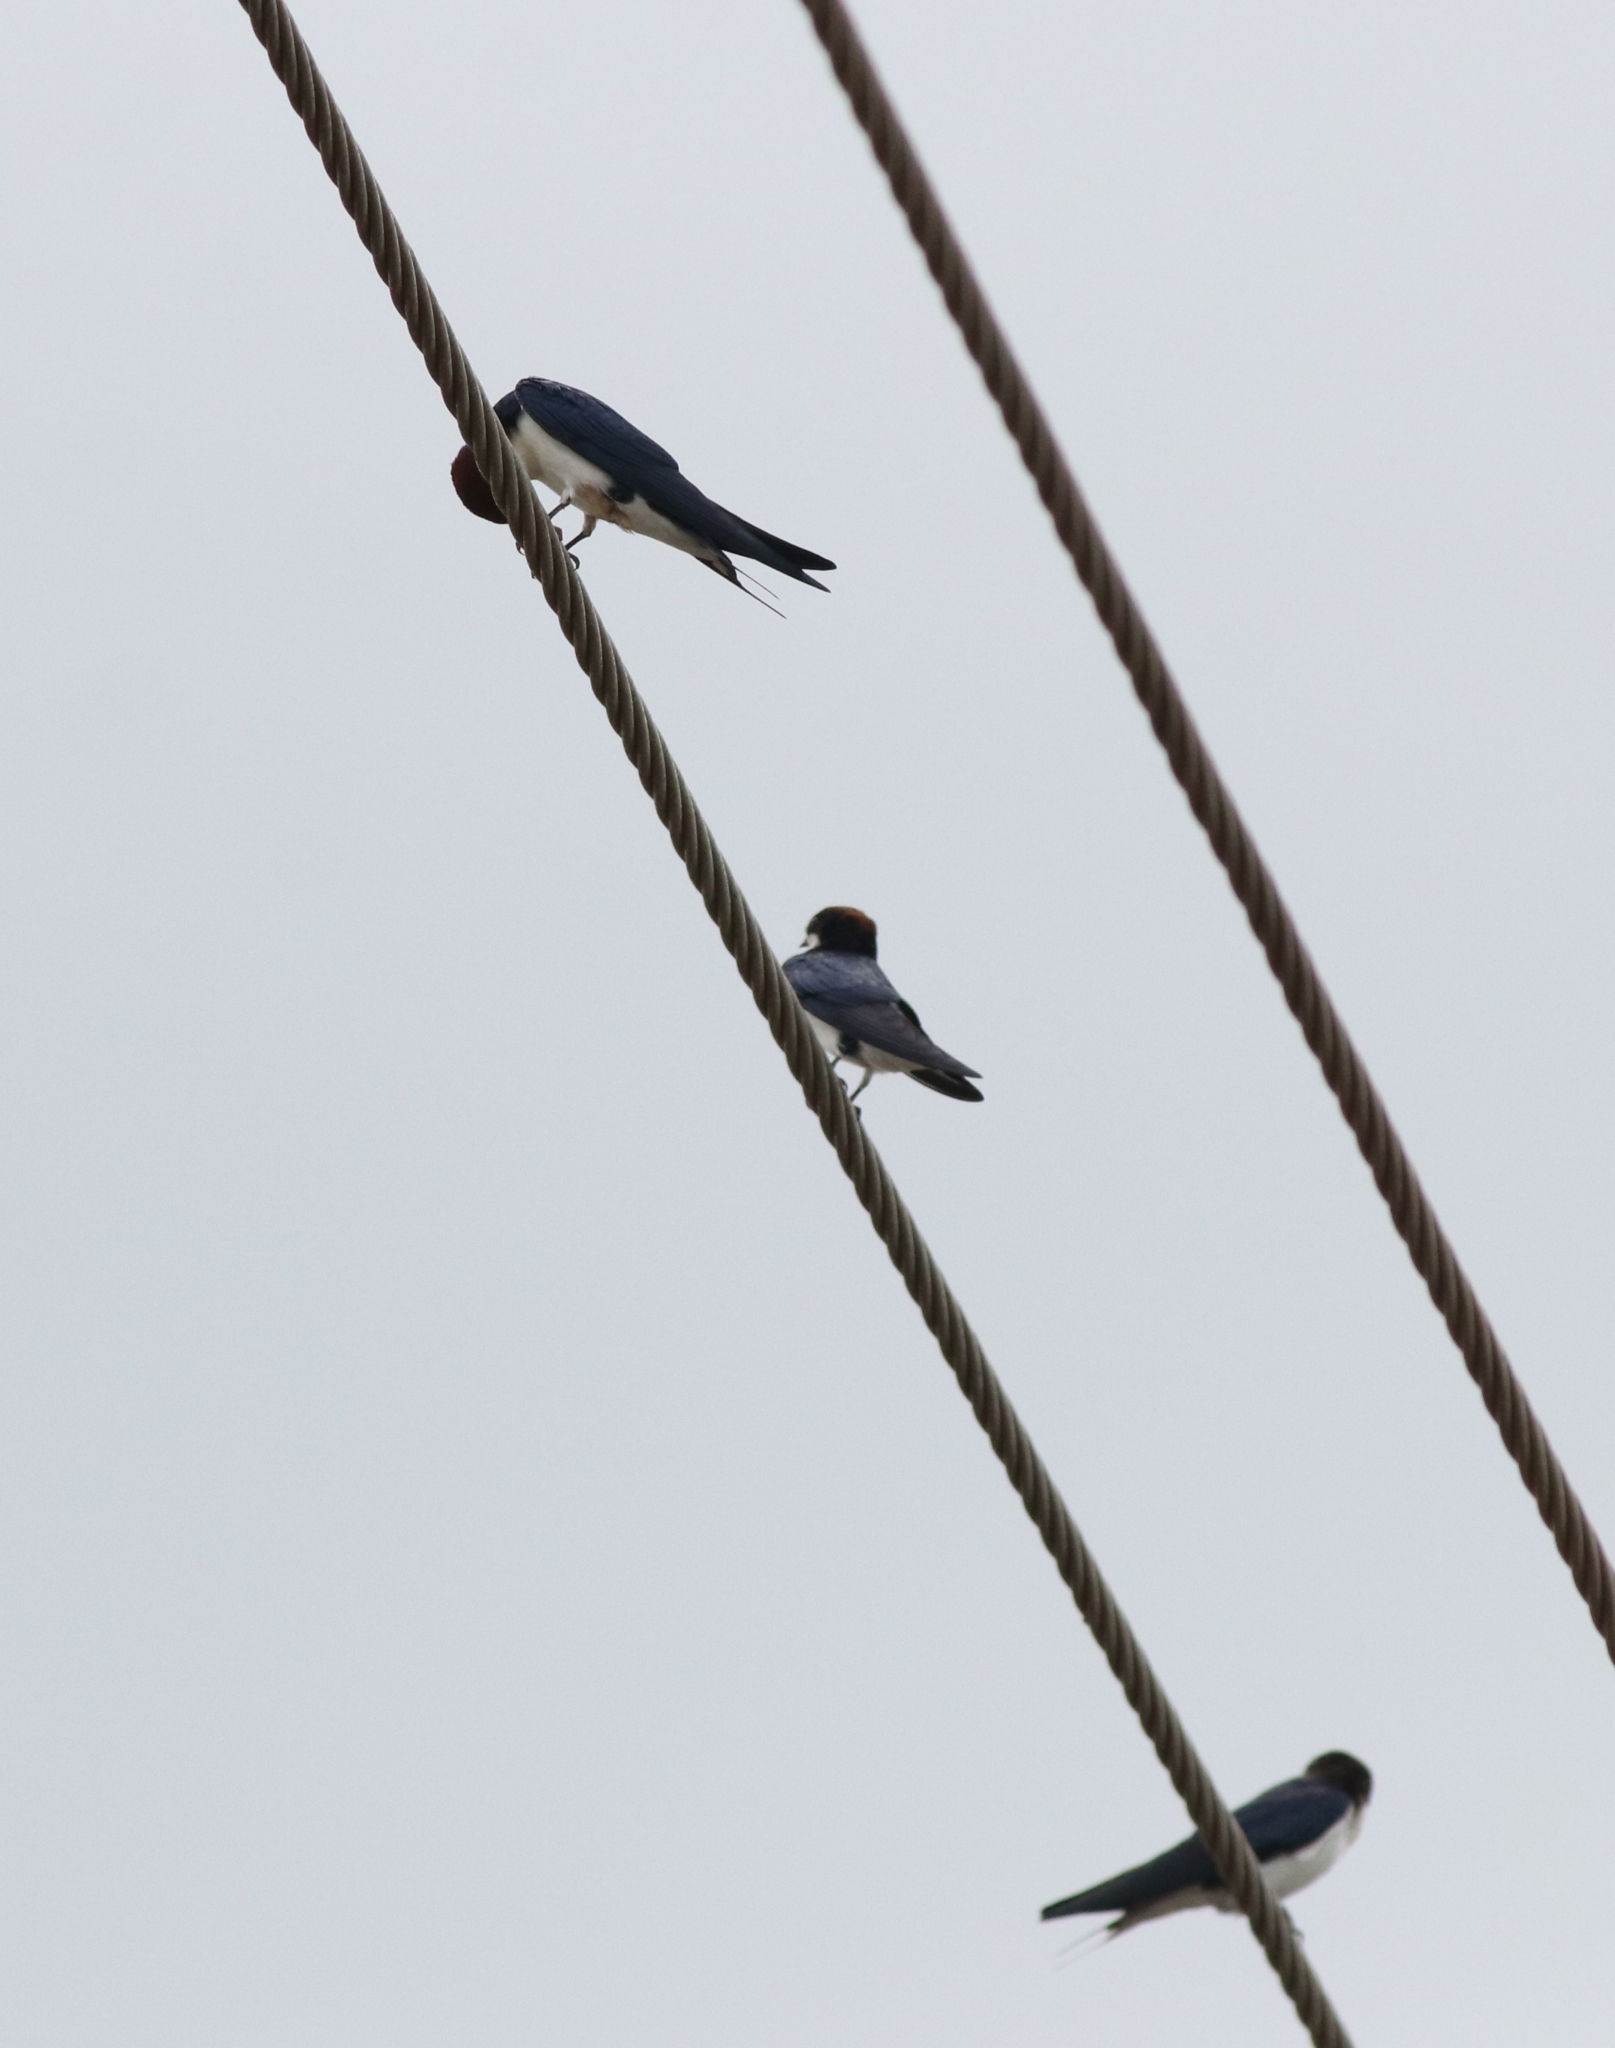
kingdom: Animalia
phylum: Chordata
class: Aves
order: Passeriformes
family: Hirundinidae
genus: Hirundo
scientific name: Hirundo smithii
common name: Wire-tailed swallow
